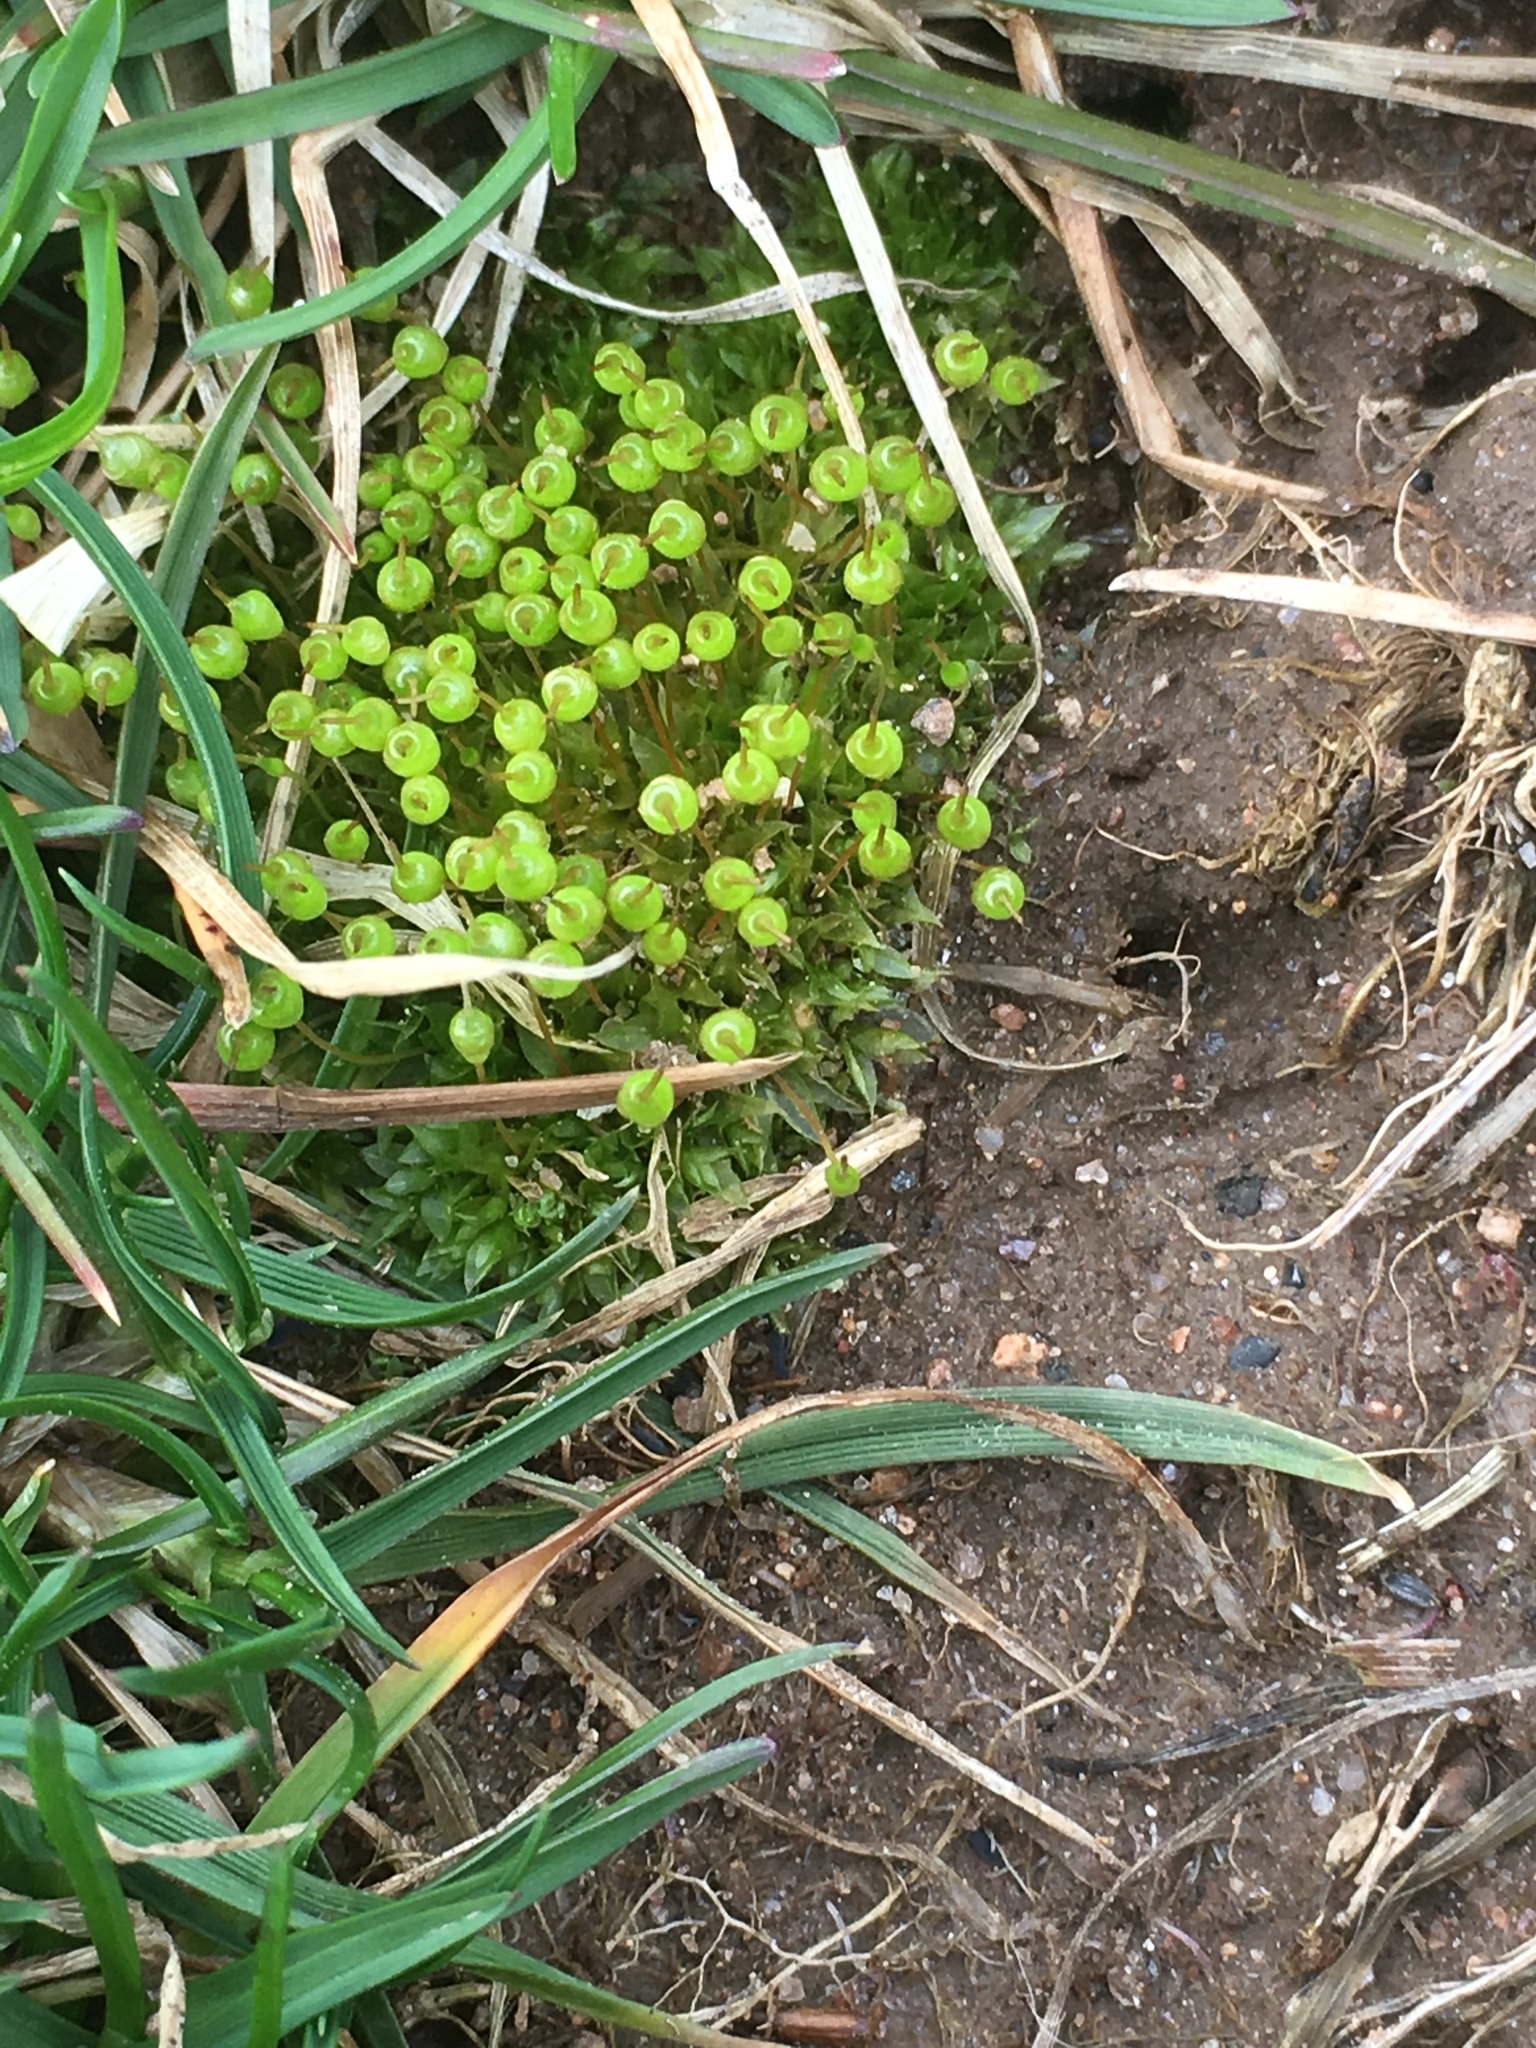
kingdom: Plantae
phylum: Bryophyta
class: Bryopsida
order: Funariales
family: Funariaceae
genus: Physcomitrium
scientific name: Physcomitrium pyriforme
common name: Common bladder-moss
